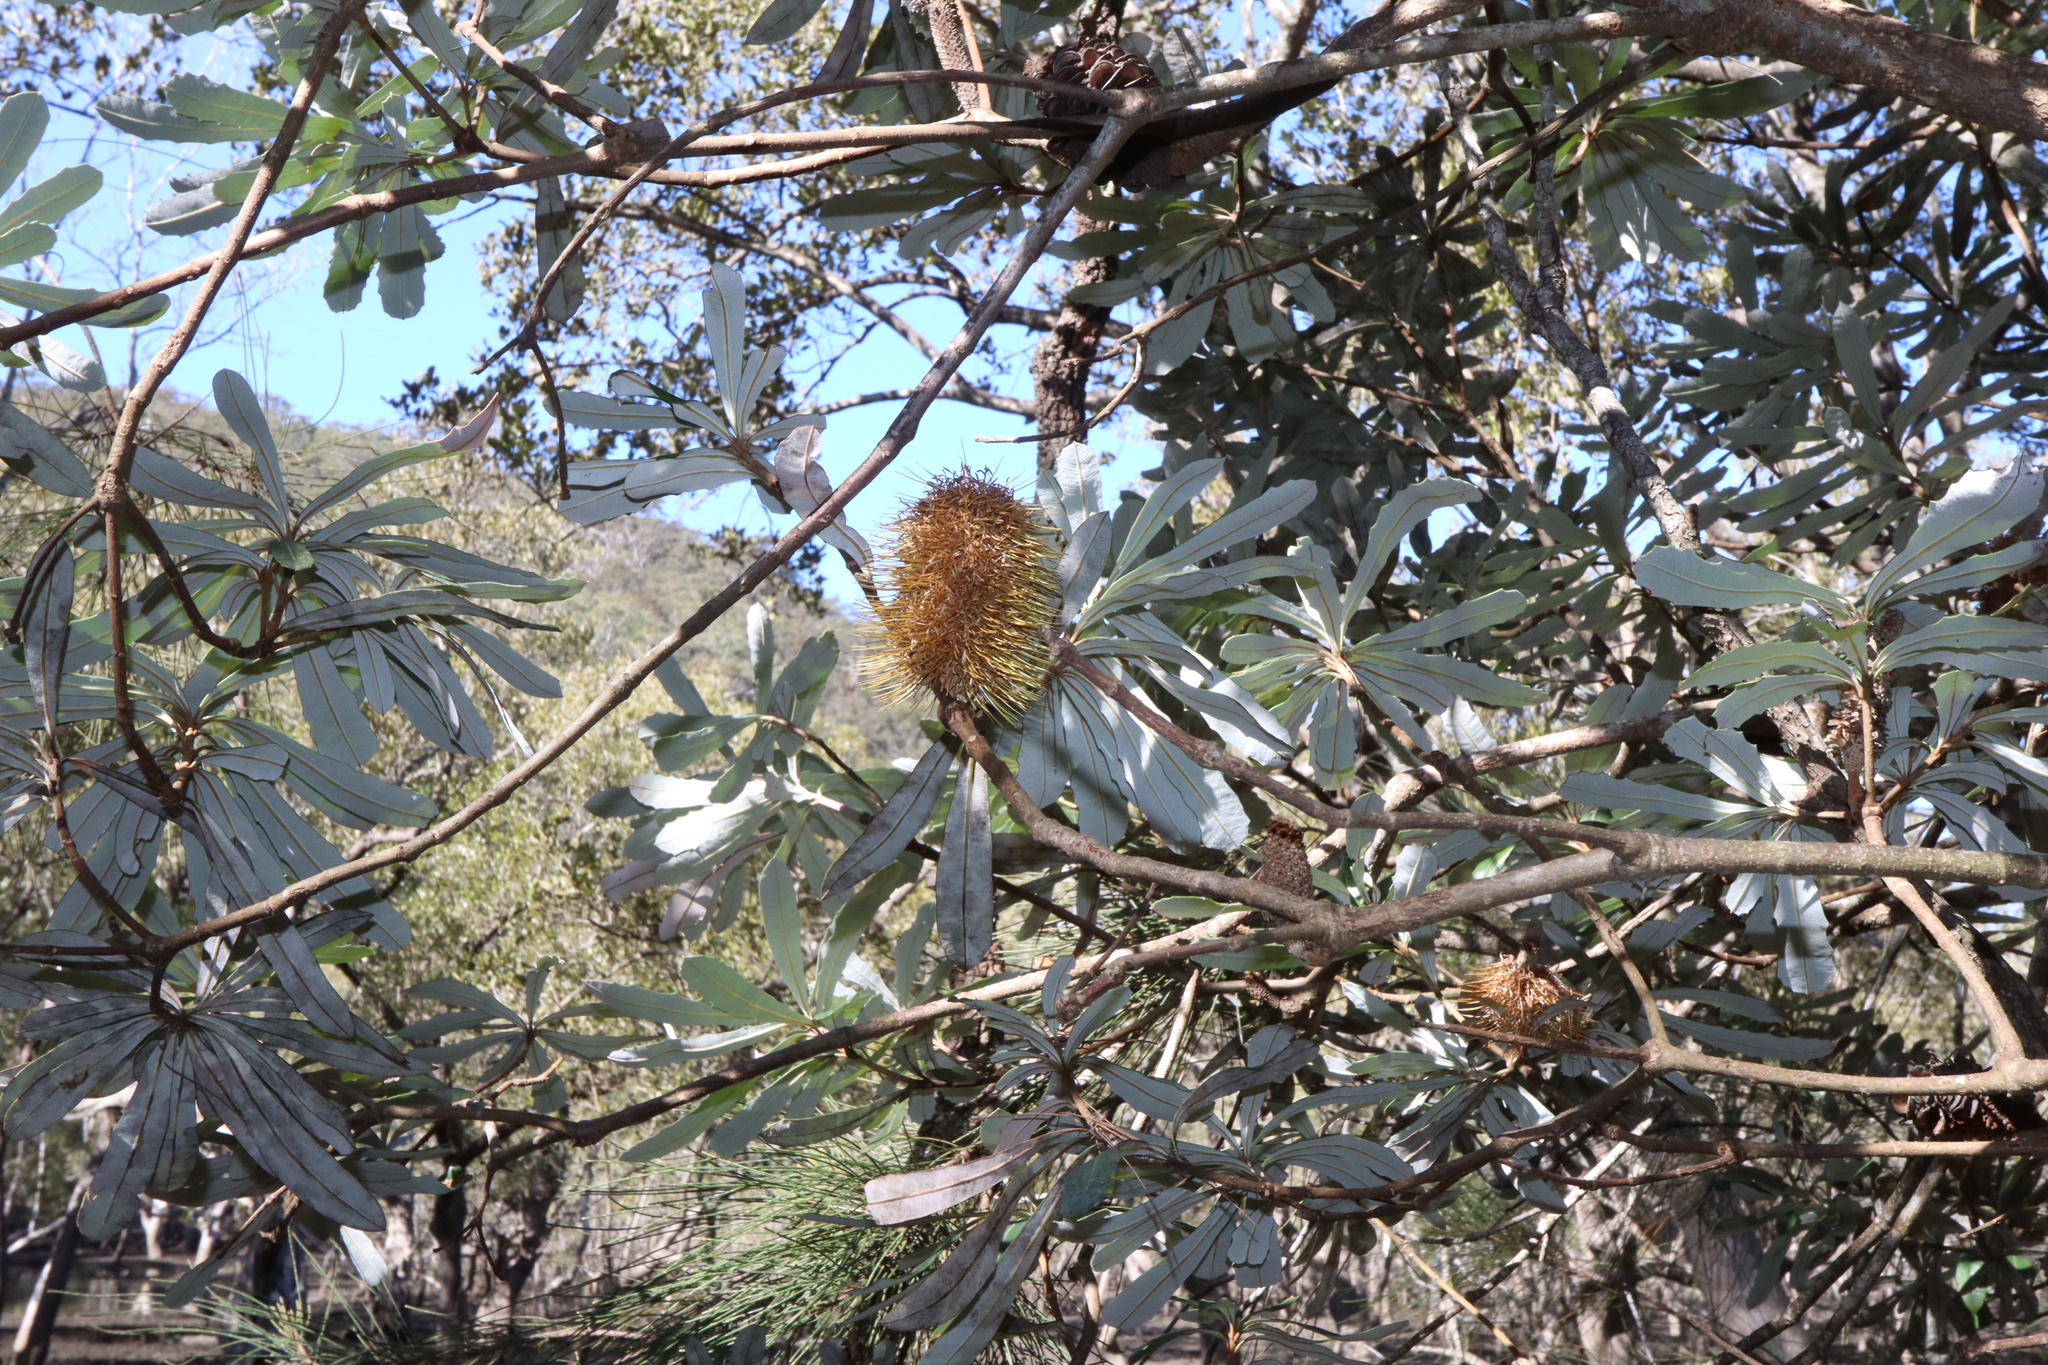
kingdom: Plantae
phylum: Tracheophyta
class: Magnoliopsida
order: Proteales
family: Proteaceae
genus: Banksia
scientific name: Banksia integrifolia
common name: White-honeysuckle
